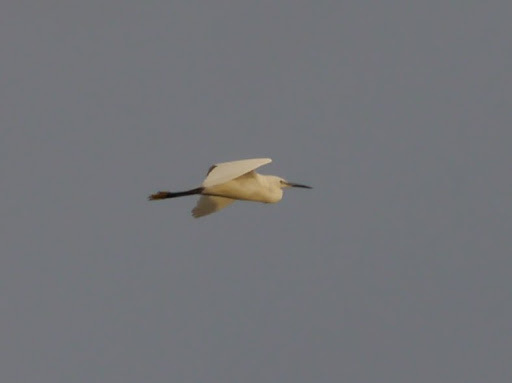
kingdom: Animalia
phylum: Chordata
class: Aves
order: Pelecaniformes
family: Ardeidae
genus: Egretta
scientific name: Egretta garzetta
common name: Little egret
